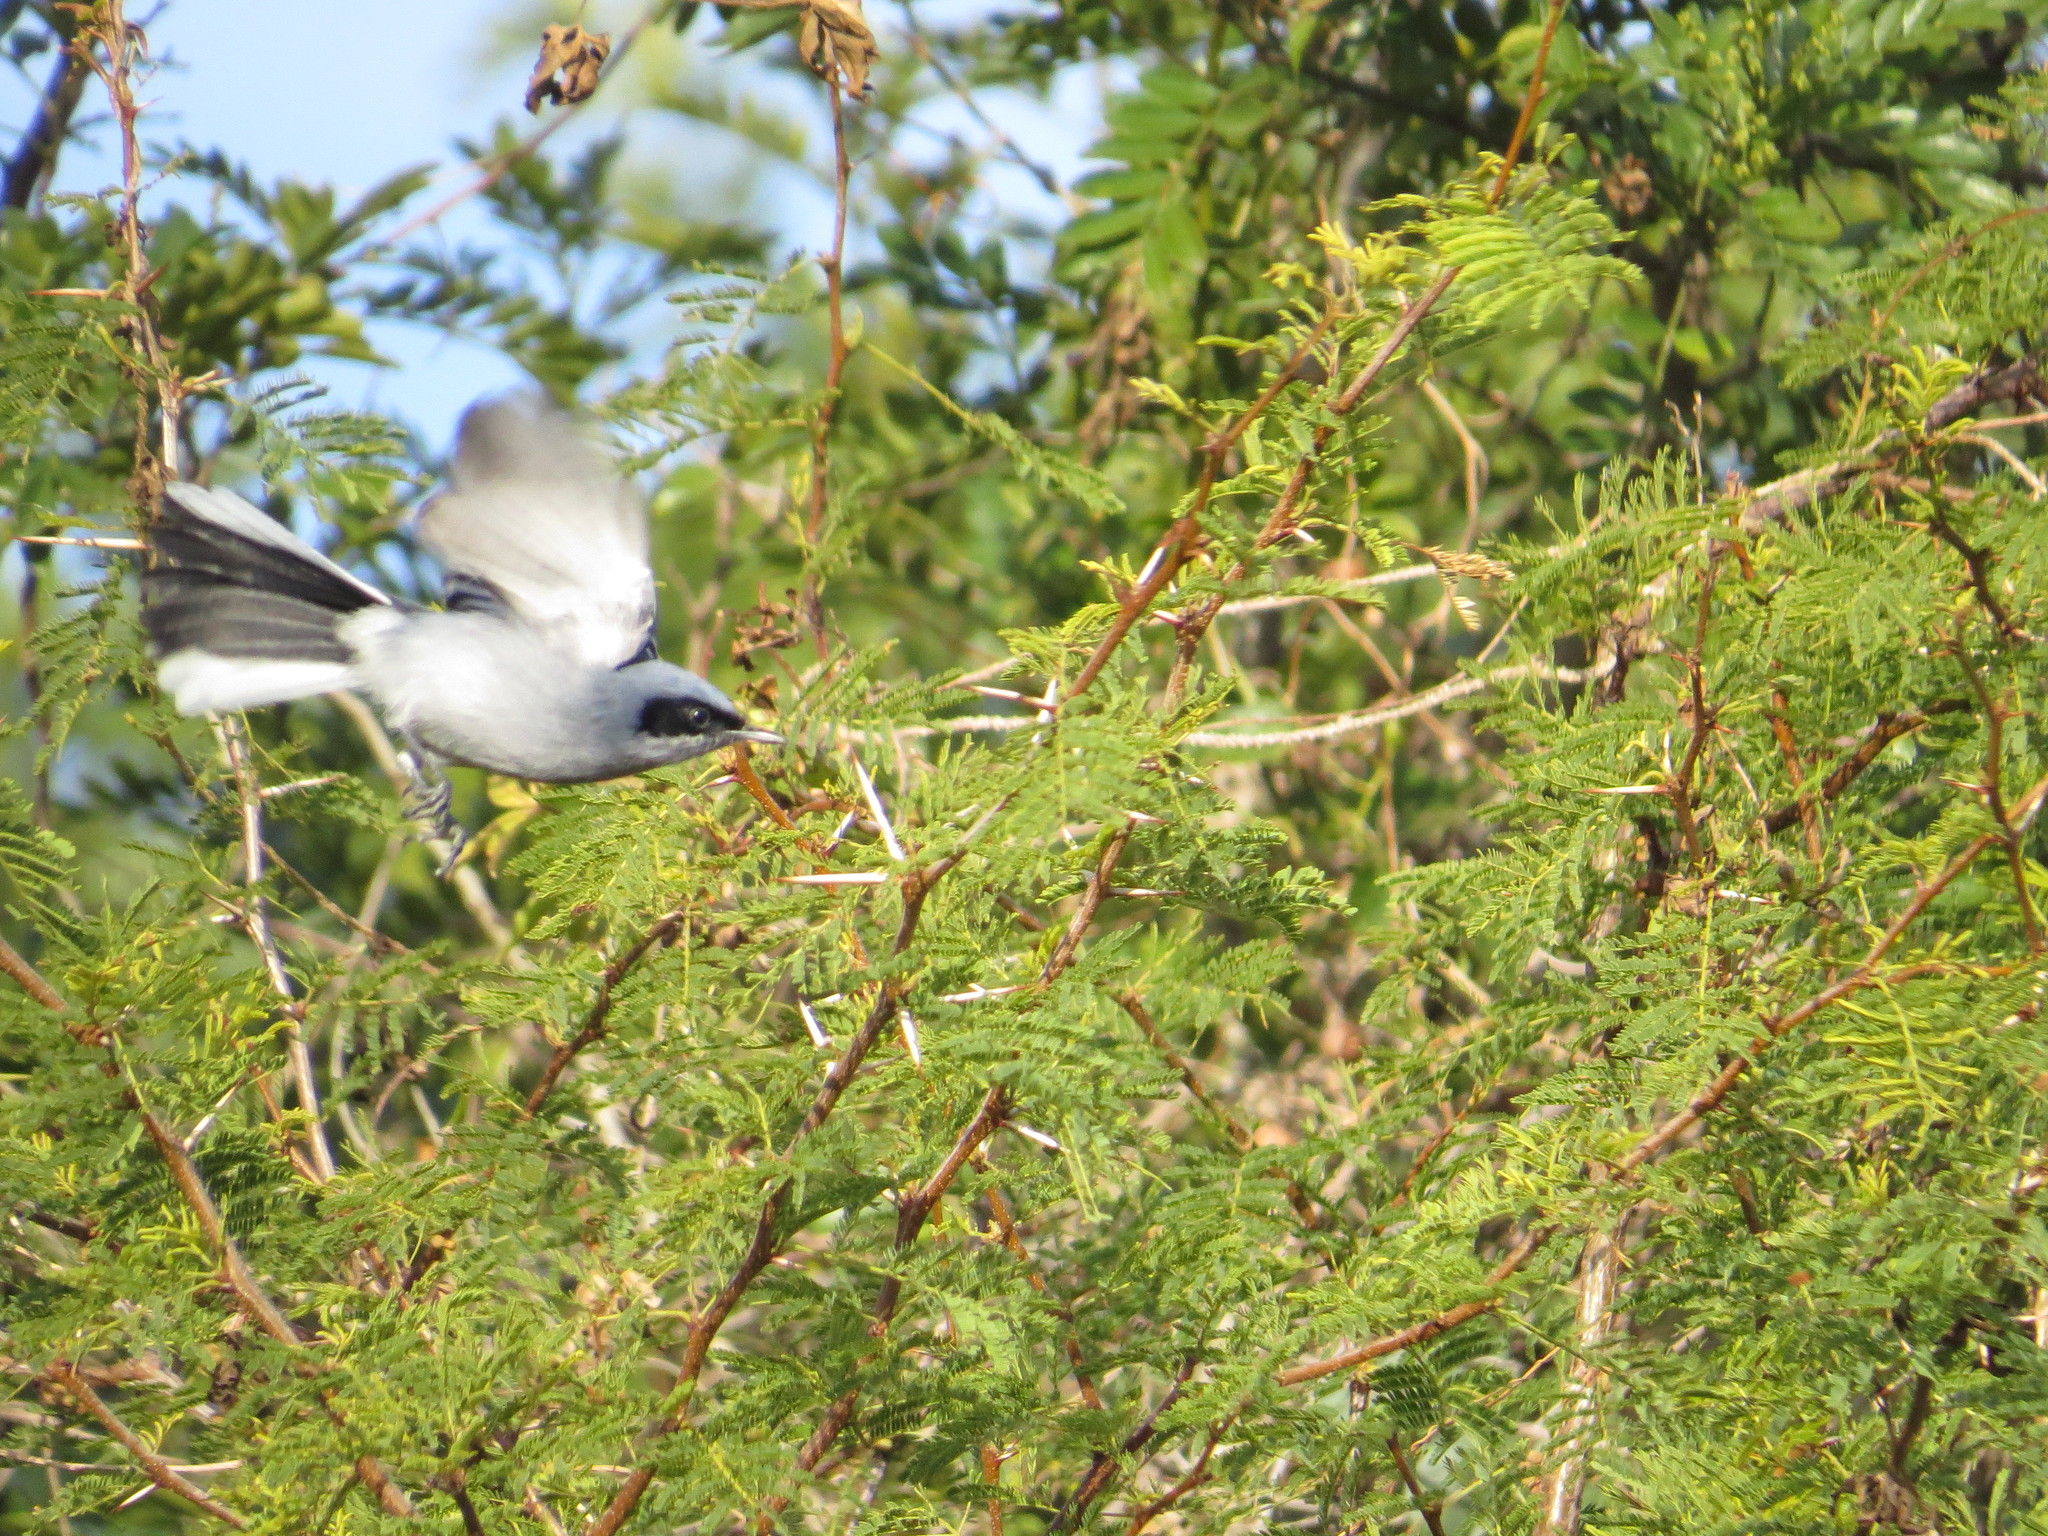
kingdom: Animalia
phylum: Chordata
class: Aves
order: Passeriformes
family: Polioptilidae
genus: Polioptila
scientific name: Polioptila dumicola
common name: Masked gnatcatcher
